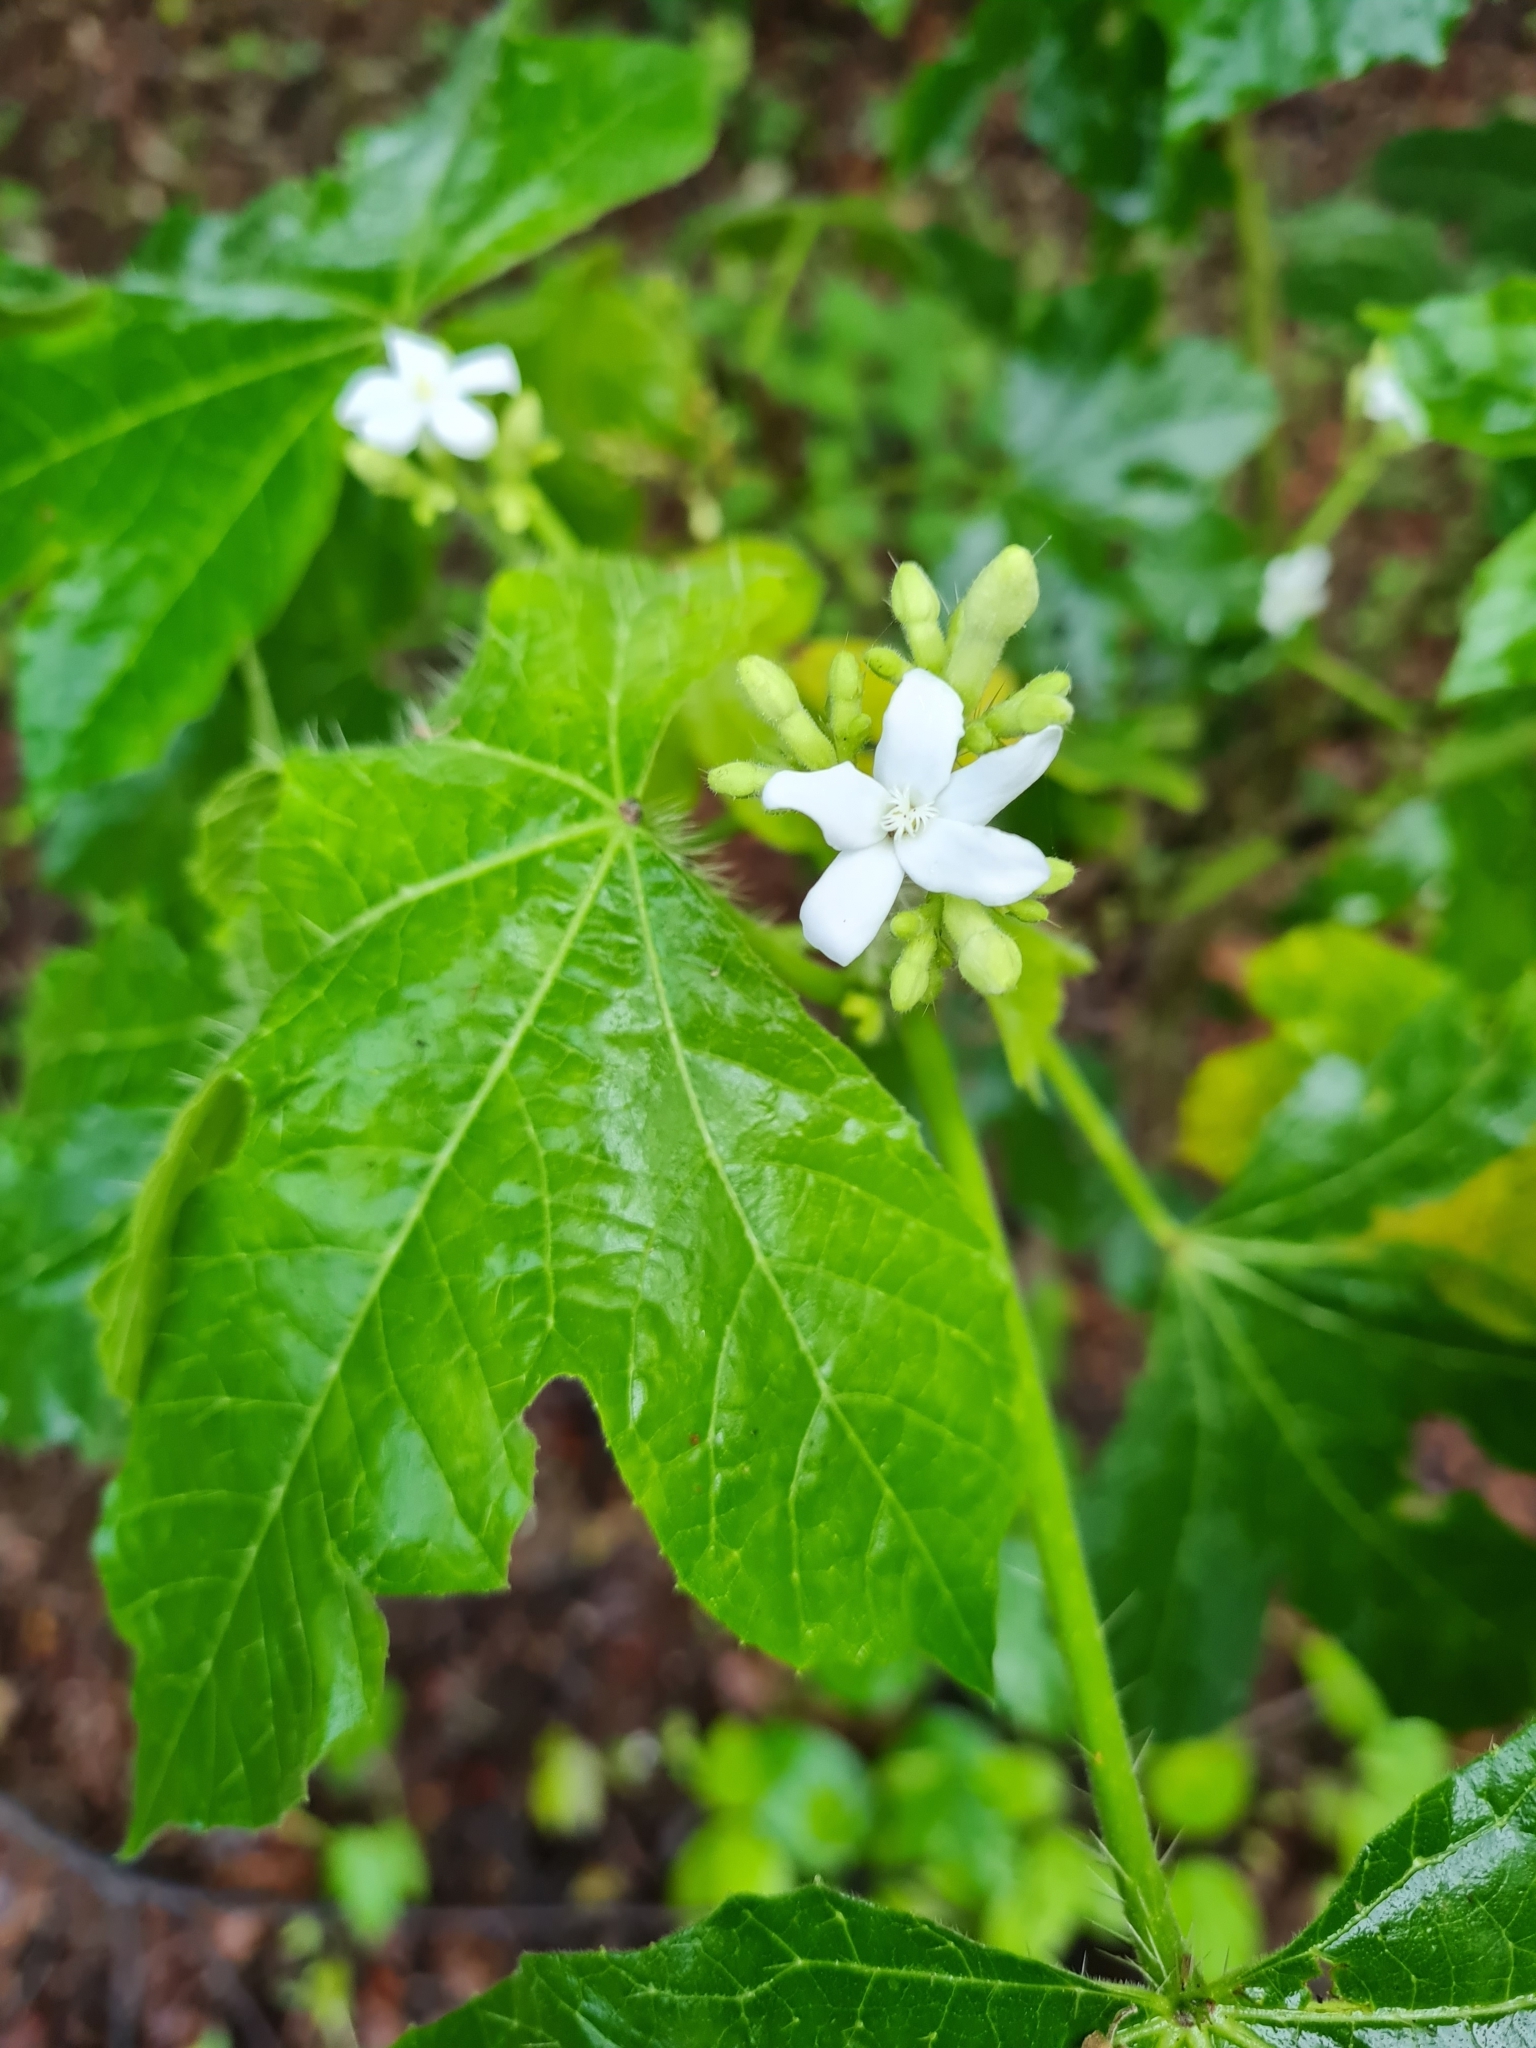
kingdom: Plantae
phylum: Tracheophyta
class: Magnoliopsida
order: Malpighiales
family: Euphorbiaceae
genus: Cnidoscolus
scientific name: Cnidoscolus urens
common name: Bull-nettle
